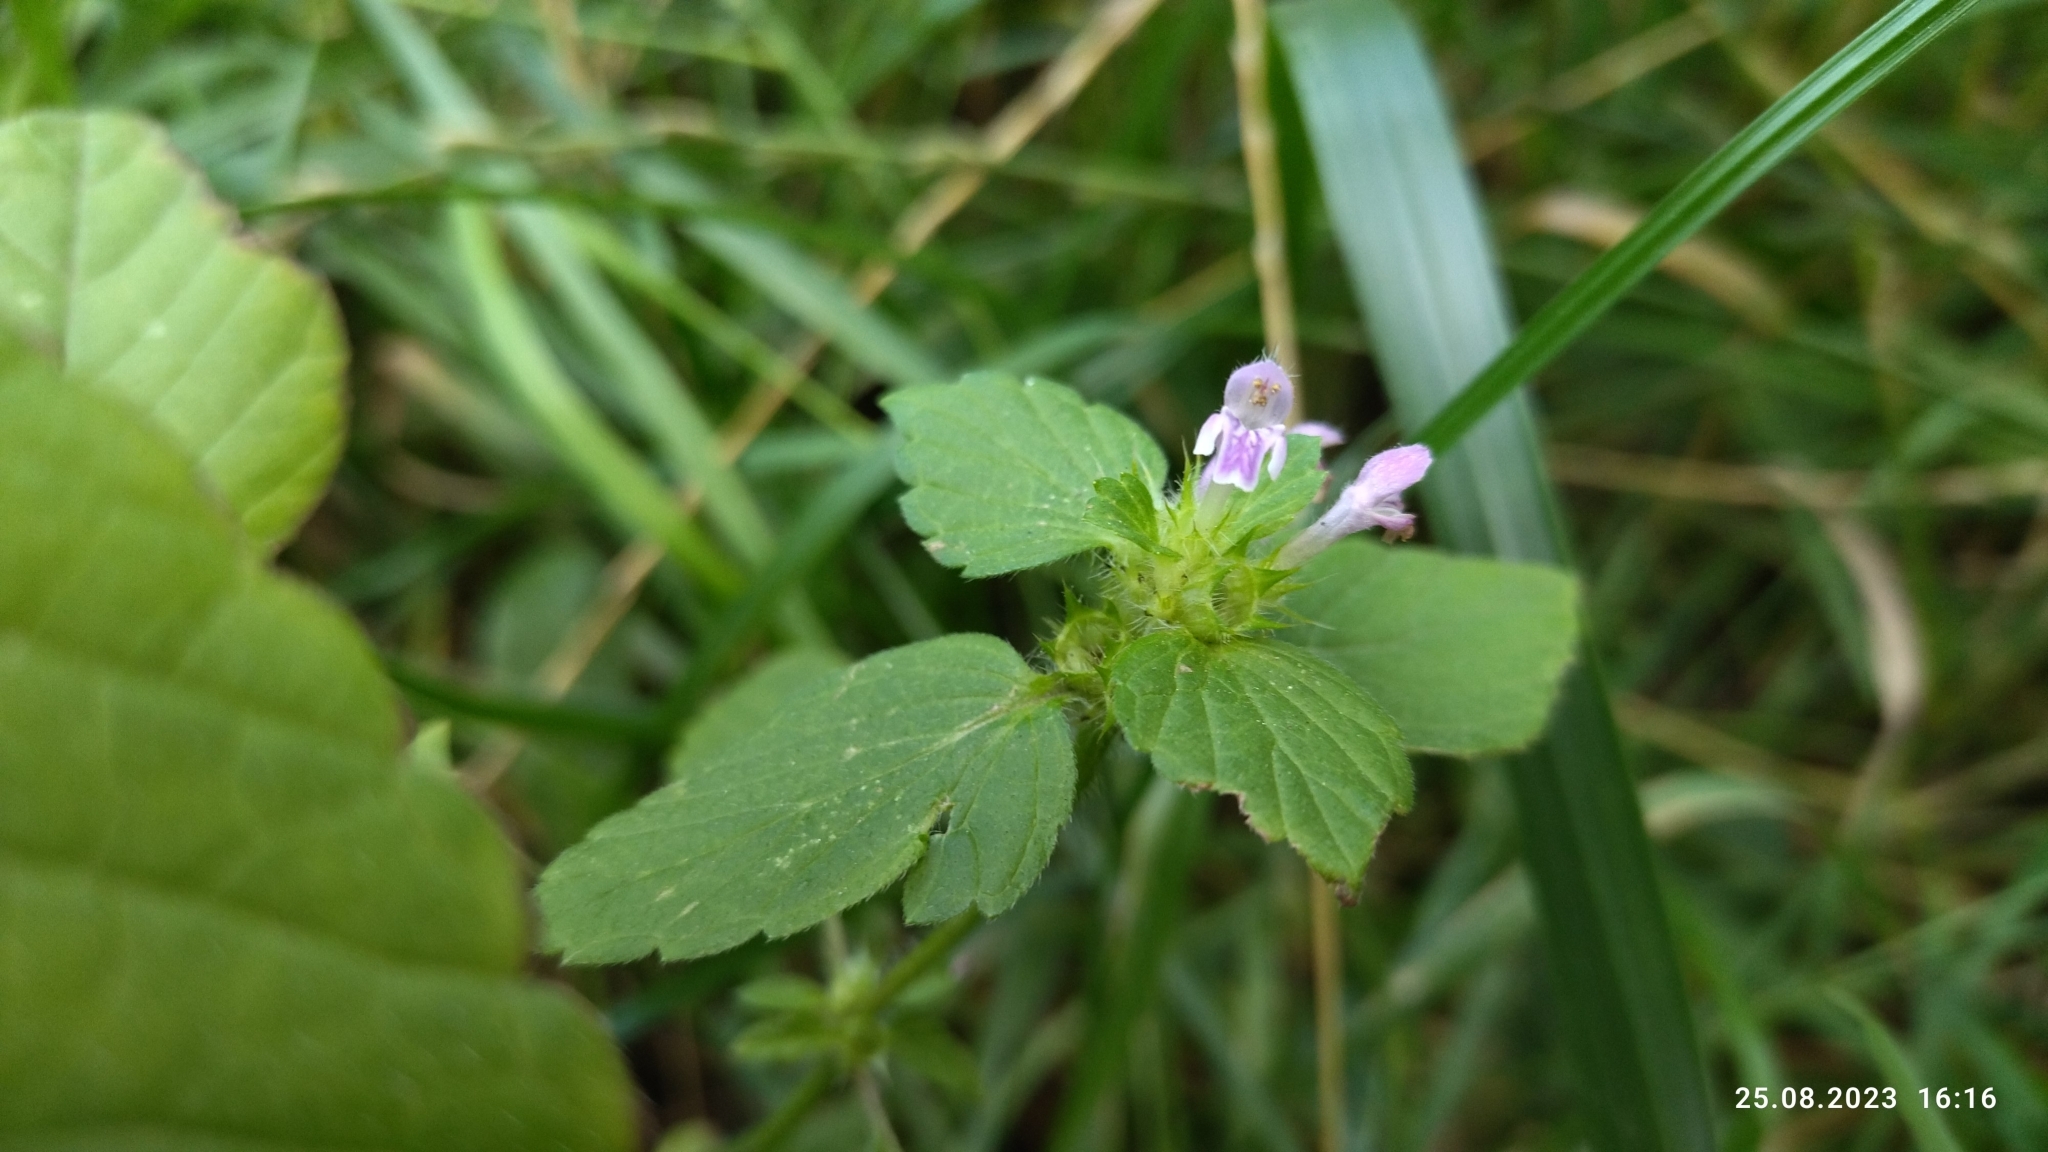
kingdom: Plantae
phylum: Tracheophyta
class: Magnoliopsida
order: Lamiales
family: Lamiaceae
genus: Galeopsis
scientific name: Galeopsis bifida
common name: Bifid hemp-nettle
